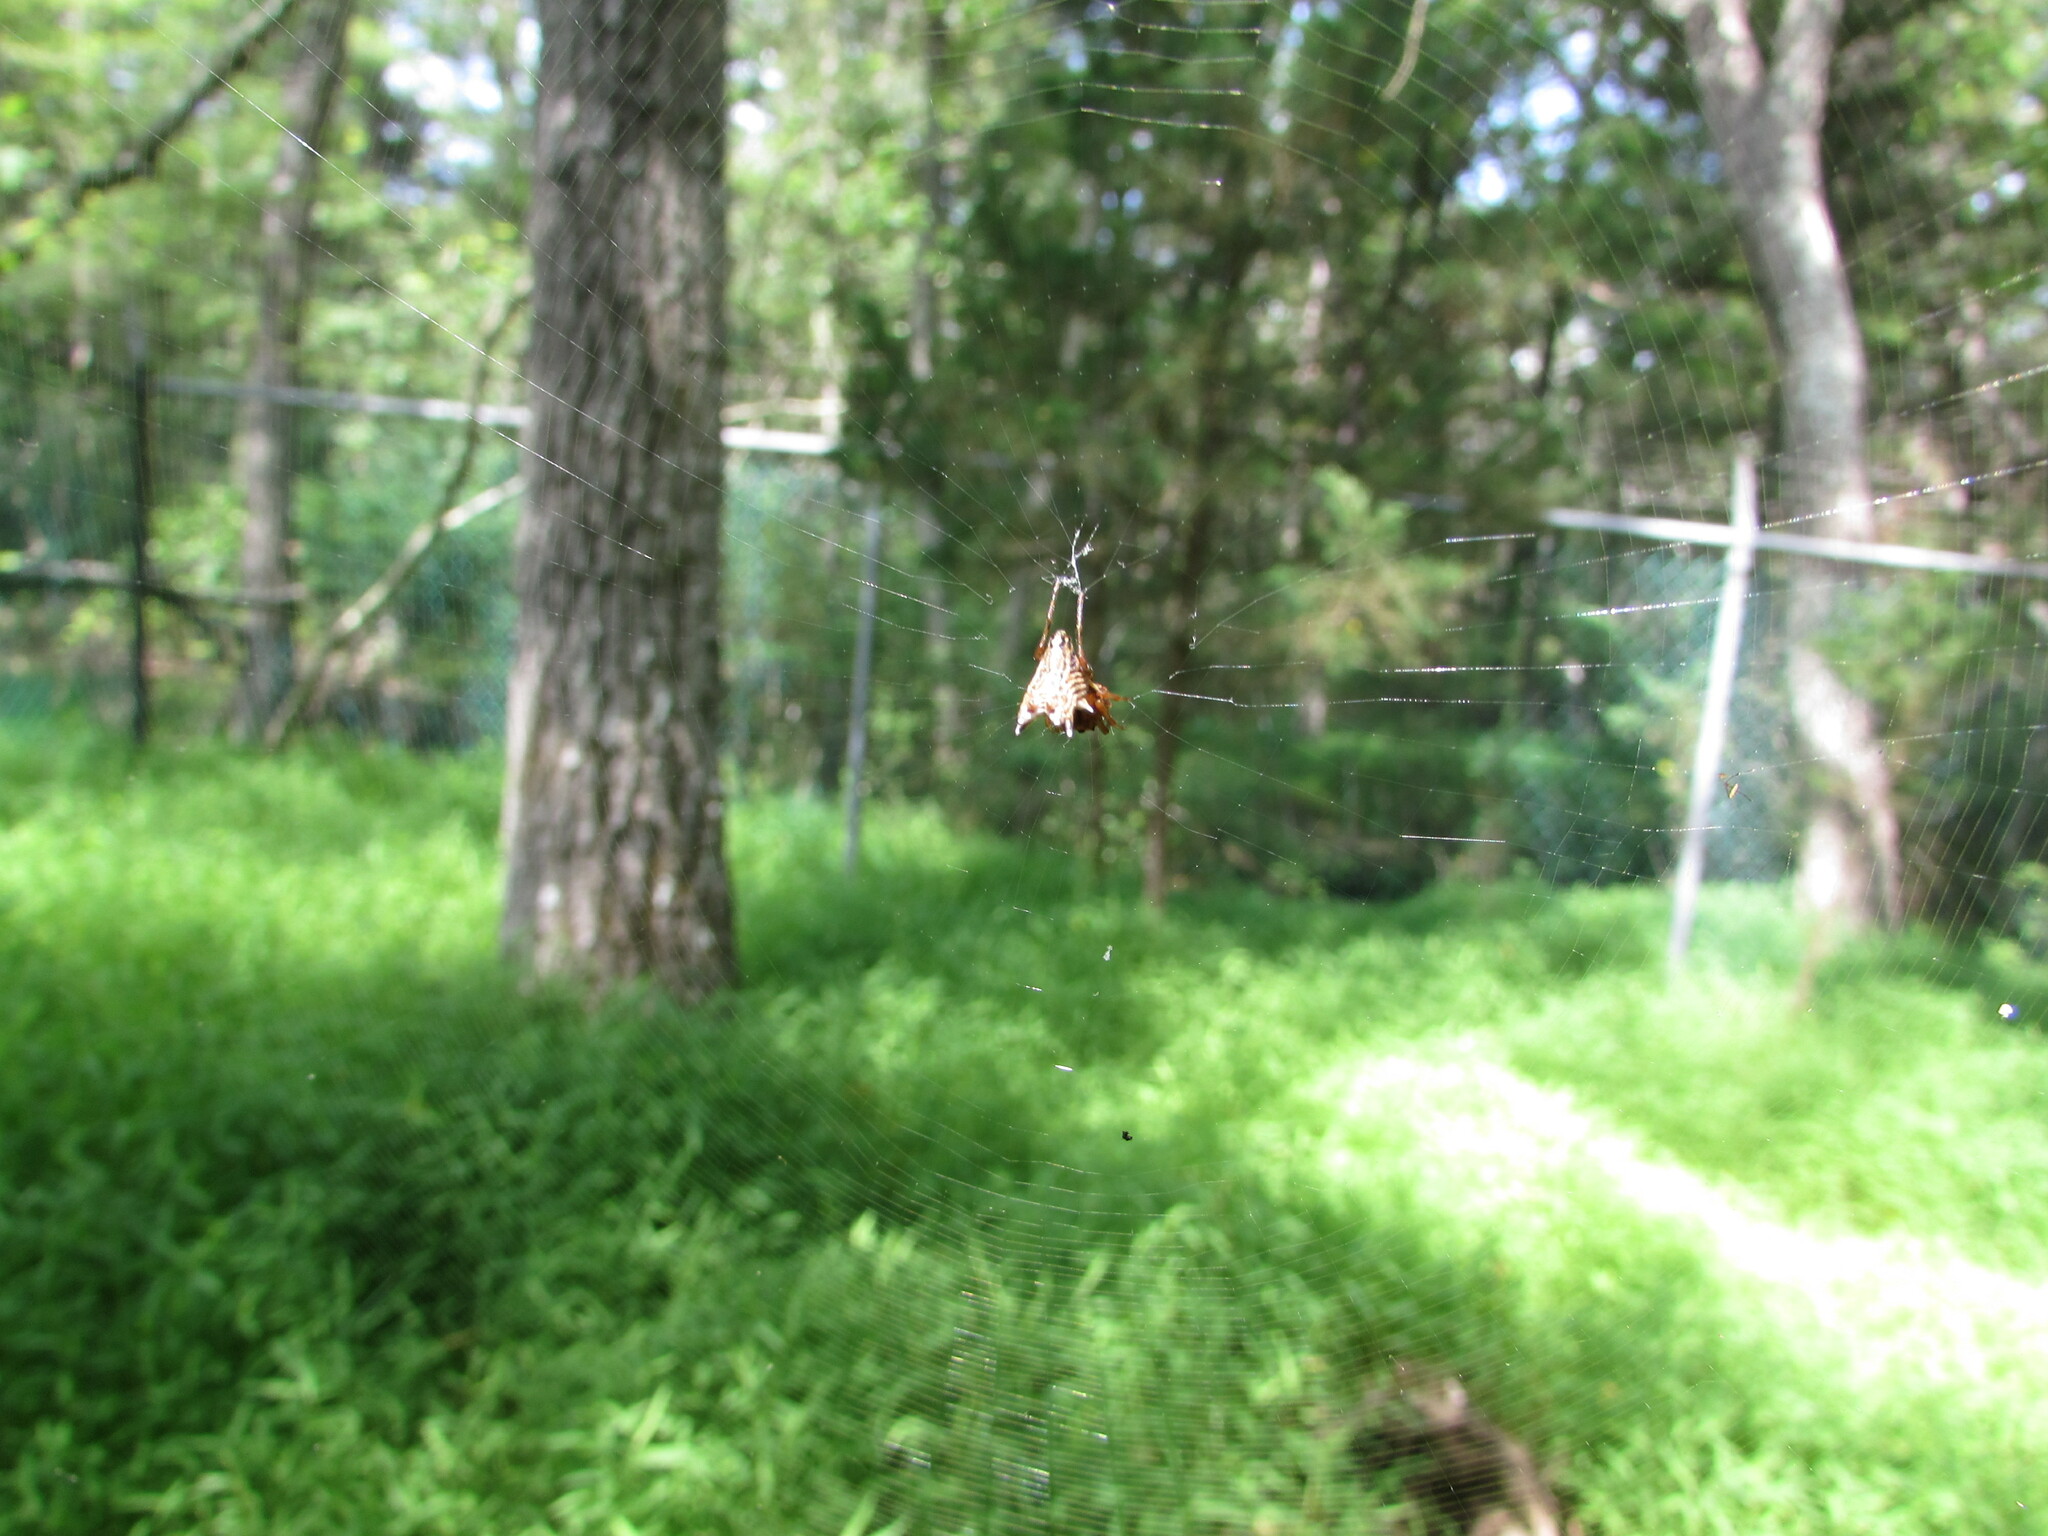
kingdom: Animalia
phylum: Arthropoda
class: Arachnida
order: Araneae
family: Araneidae
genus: Micrathena
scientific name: Micrathena gracilis
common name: Orb weavers
